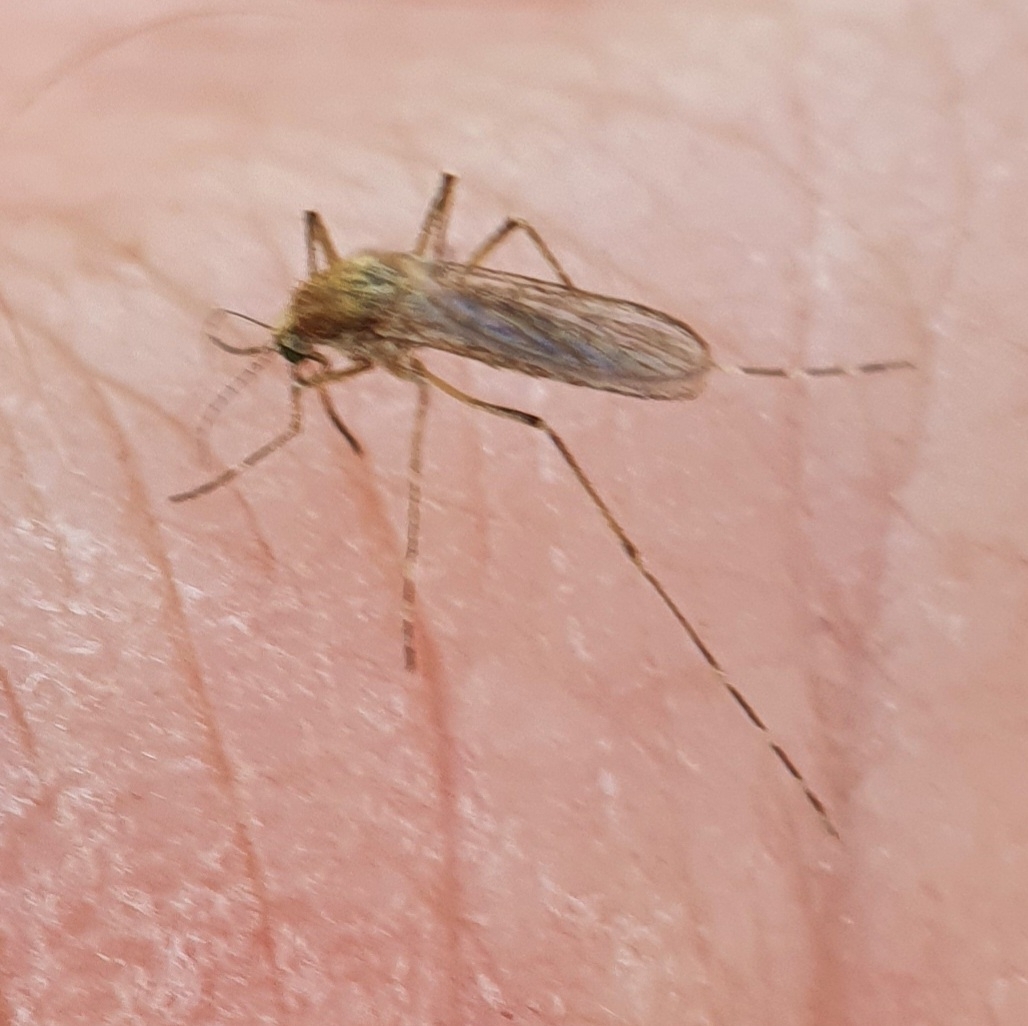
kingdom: Animalia
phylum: Arthropoda
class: Insecta
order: Diptera
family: Culicidae
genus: Aedes
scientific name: Aedes caspius
